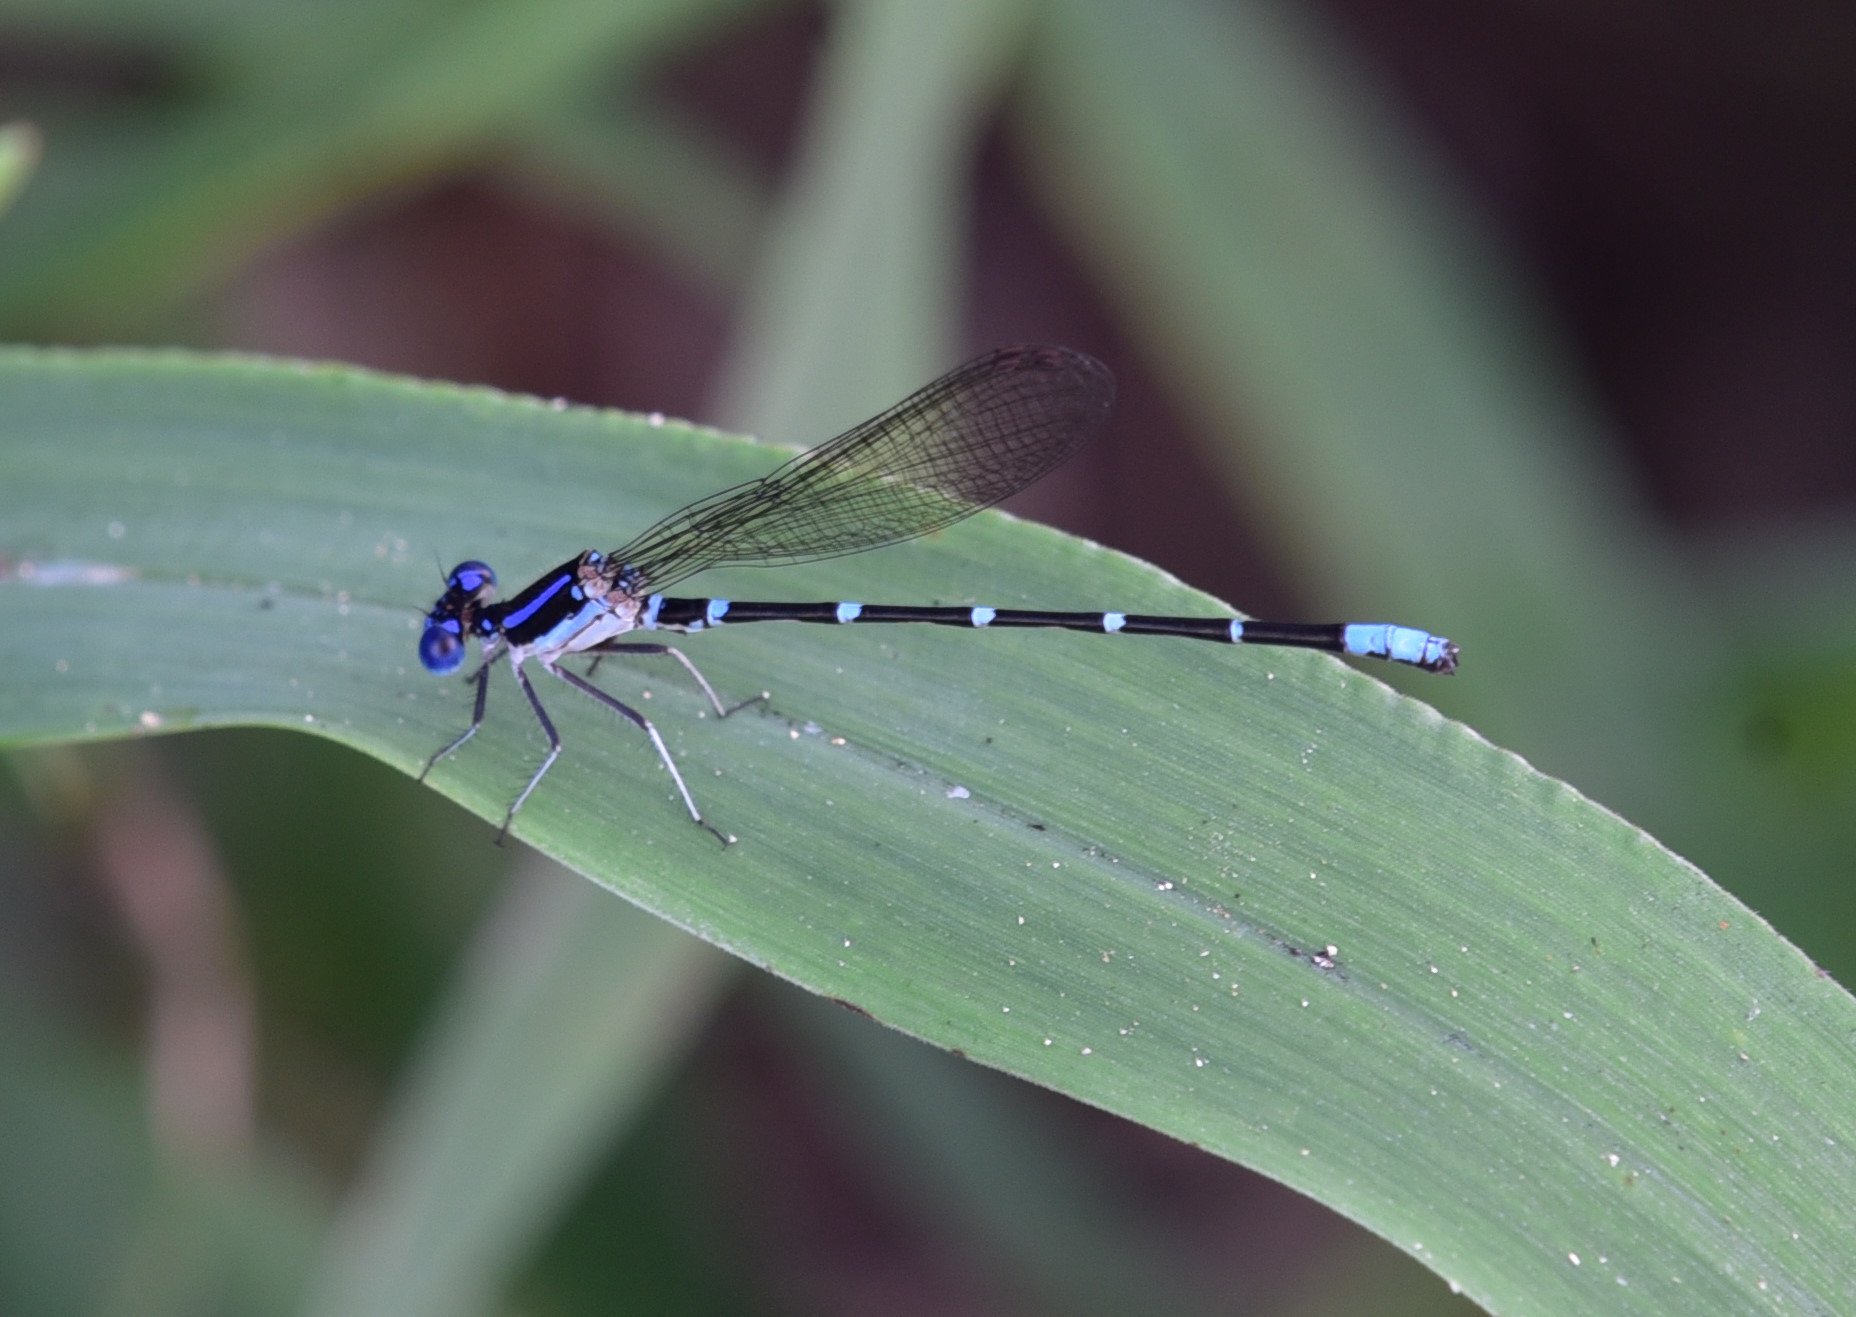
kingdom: Animalia
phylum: Arthropoda
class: Insecta
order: Odonata
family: Coenagrionidae
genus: Argia
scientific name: Argia sedula
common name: Blue-ringed dancer
